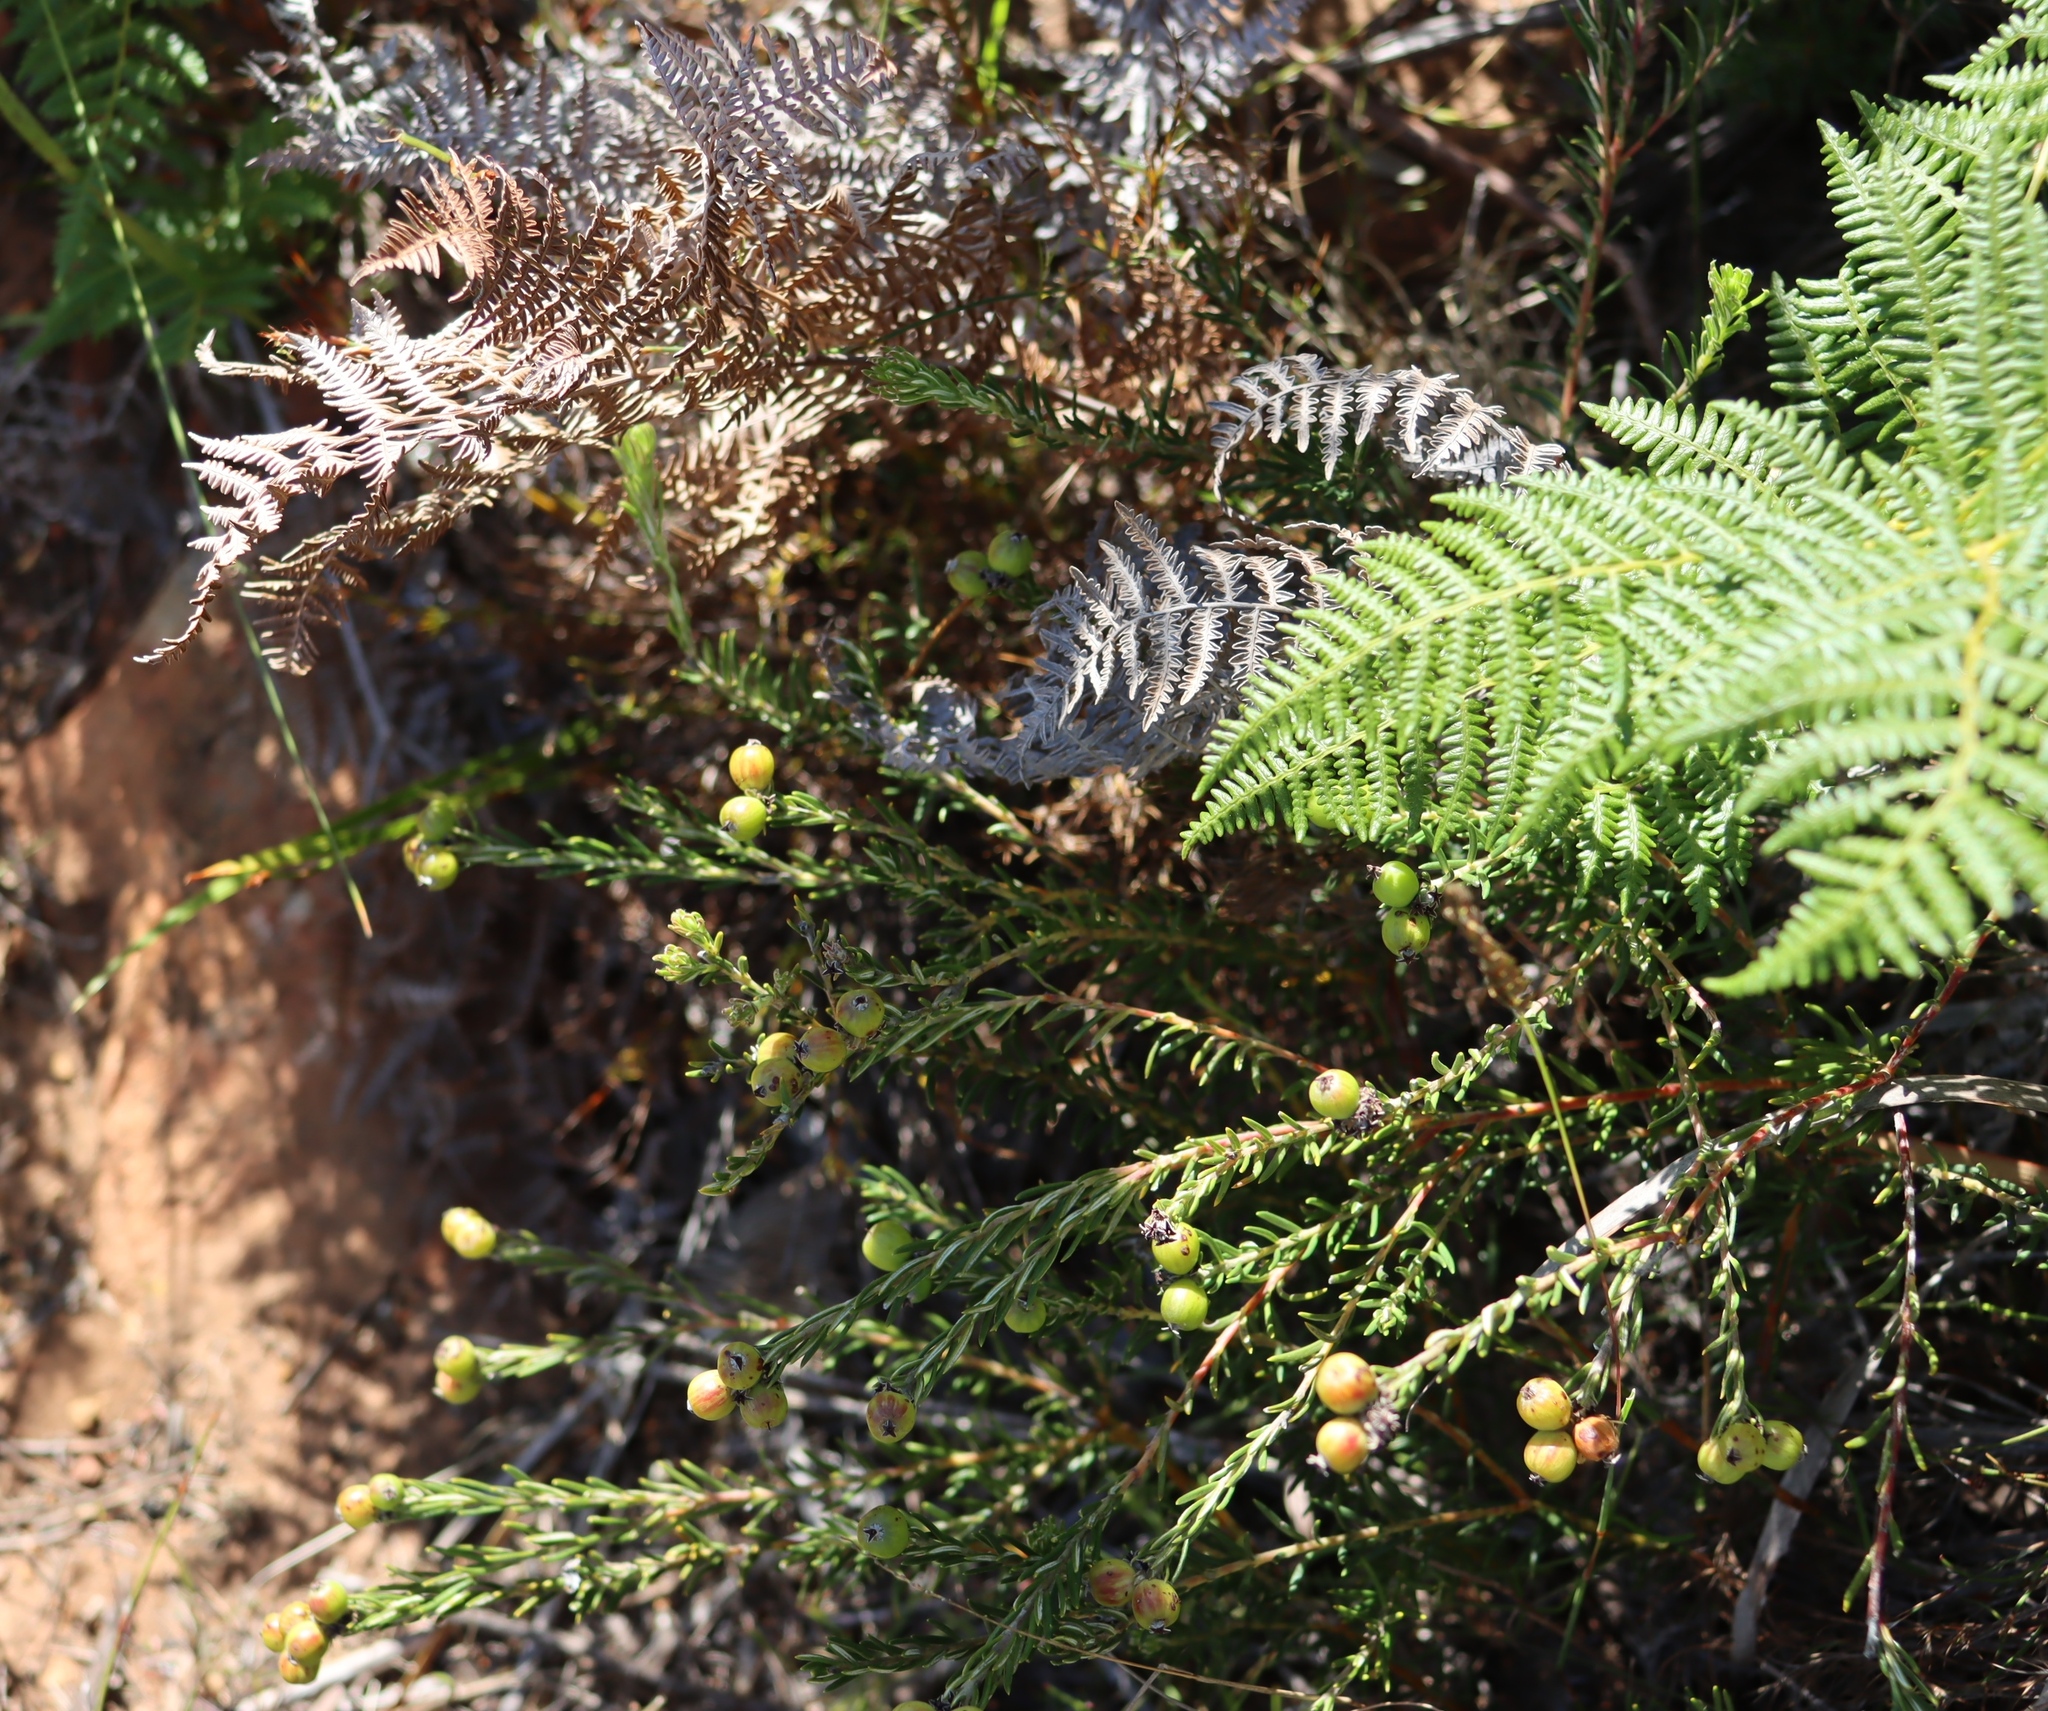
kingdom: Plantae
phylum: Tracheophyta
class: Polypodiopsida
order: Polypodiales
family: Dennstaedtiaceae
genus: Pteridium
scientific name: Pteridium aquilinum
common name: Bracken
